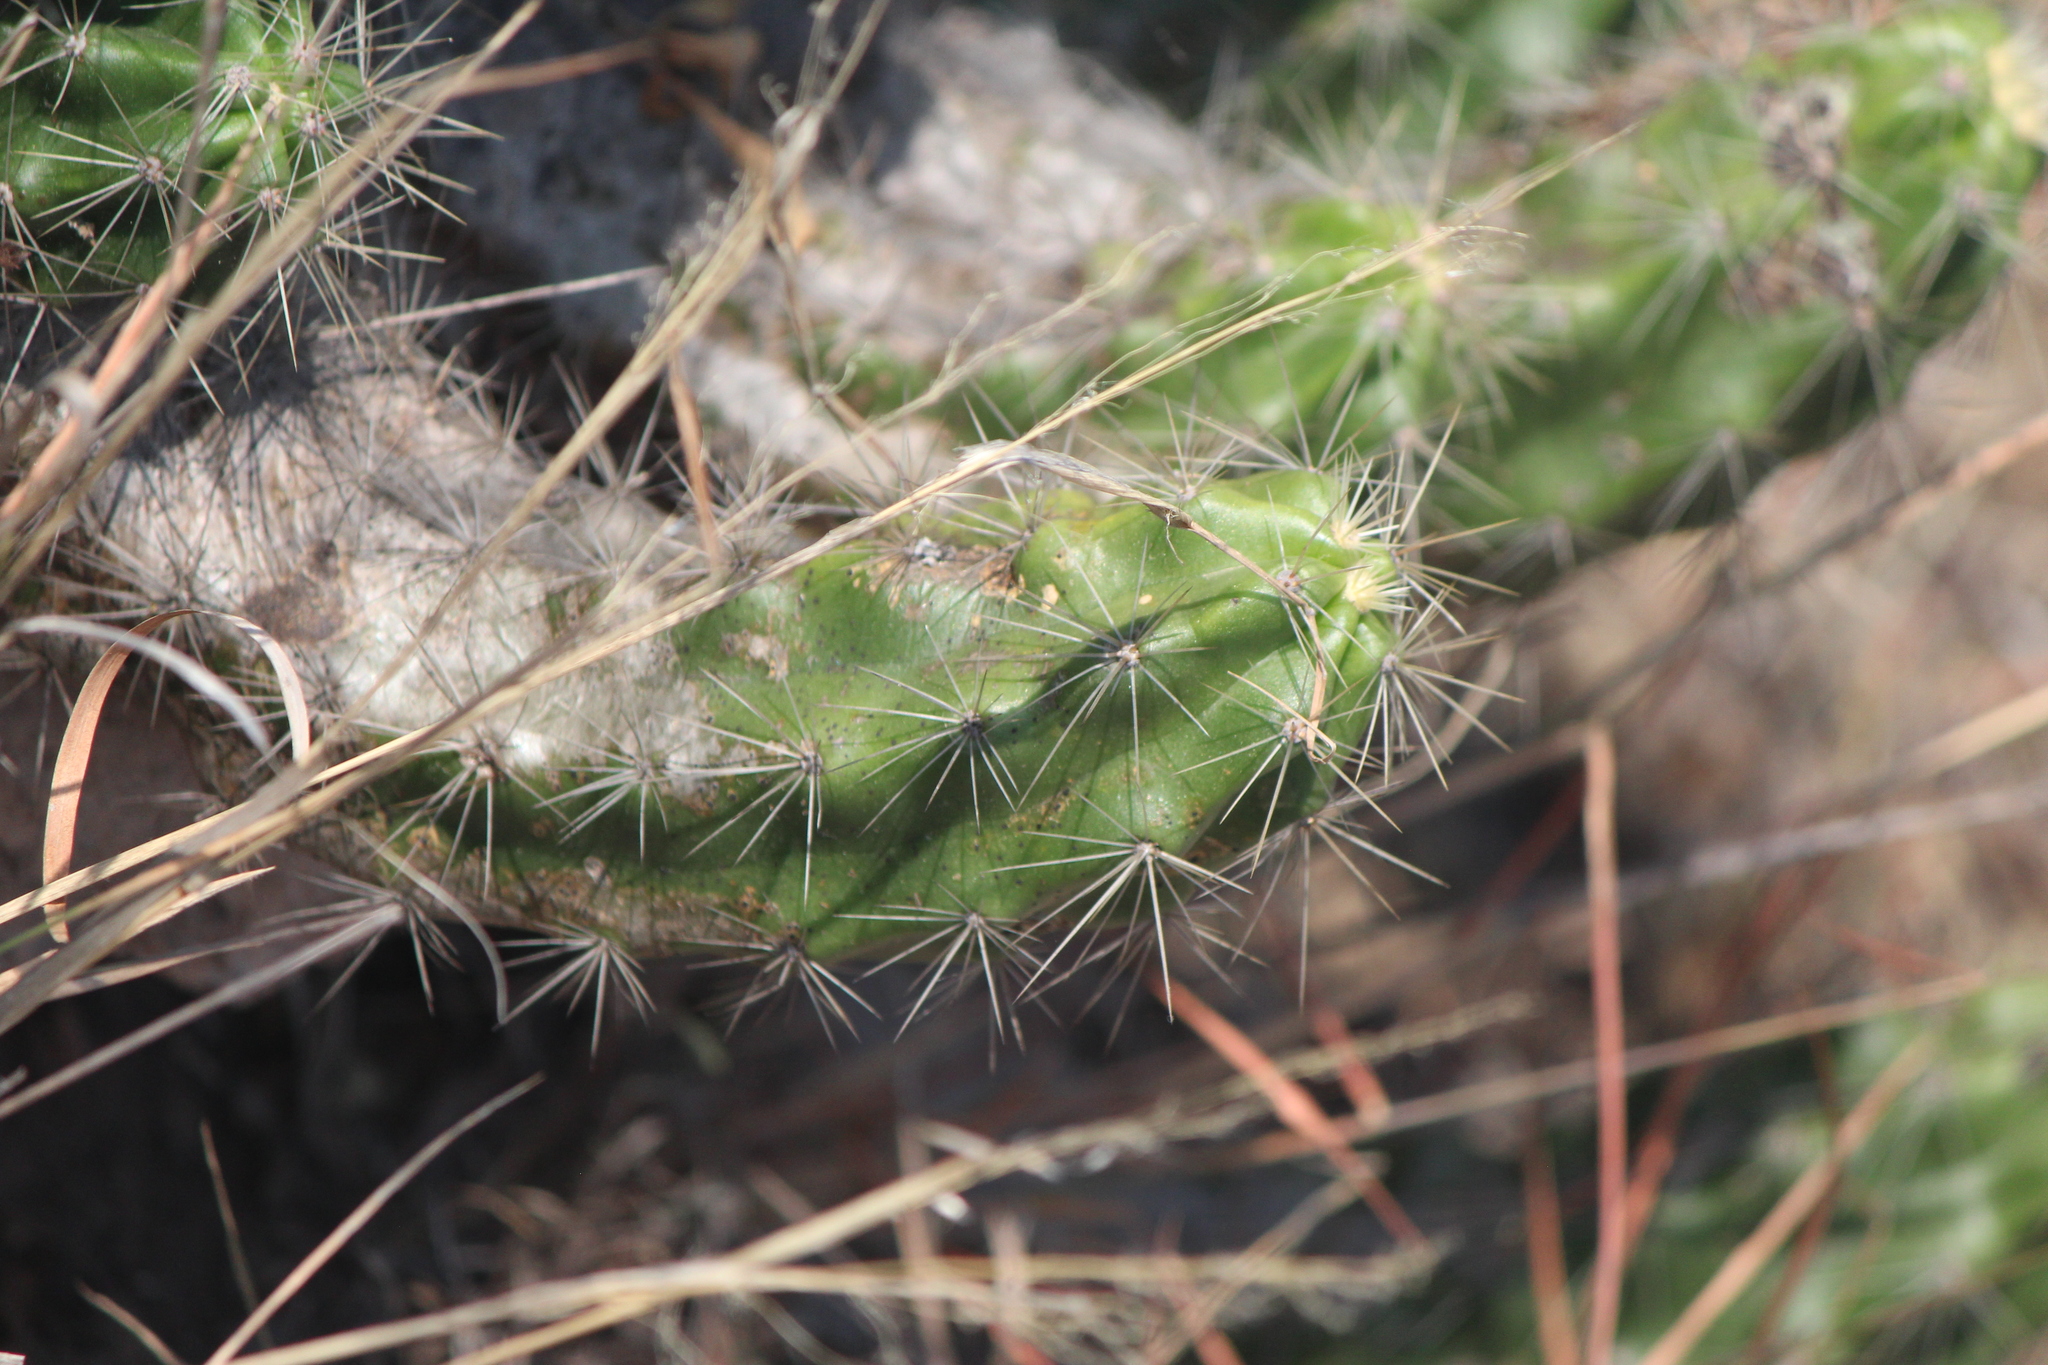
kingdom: Plantae
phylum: Tracheophyta
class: Magnoliopsida
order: Caryophyllales
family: Cactaceae
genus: Echinocereus
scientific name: Echinocereus cinerascens
